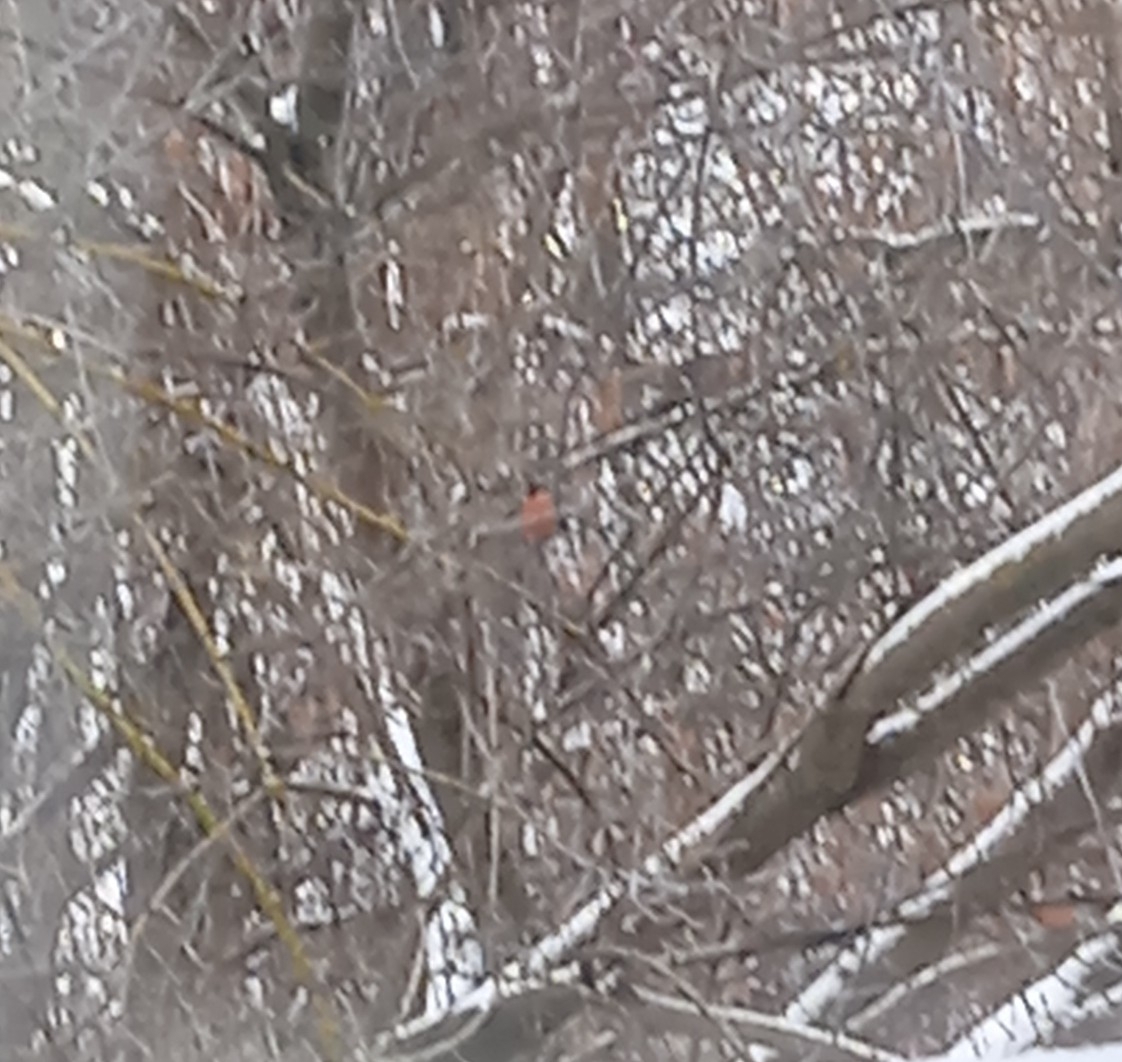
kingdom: Animalia
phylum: Chordata
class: Aves
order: Passeriformes
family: Fringillidae
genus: Pyrrhula
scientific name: Pyrrhula pyrrhula
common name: Eurasian bullfinch
